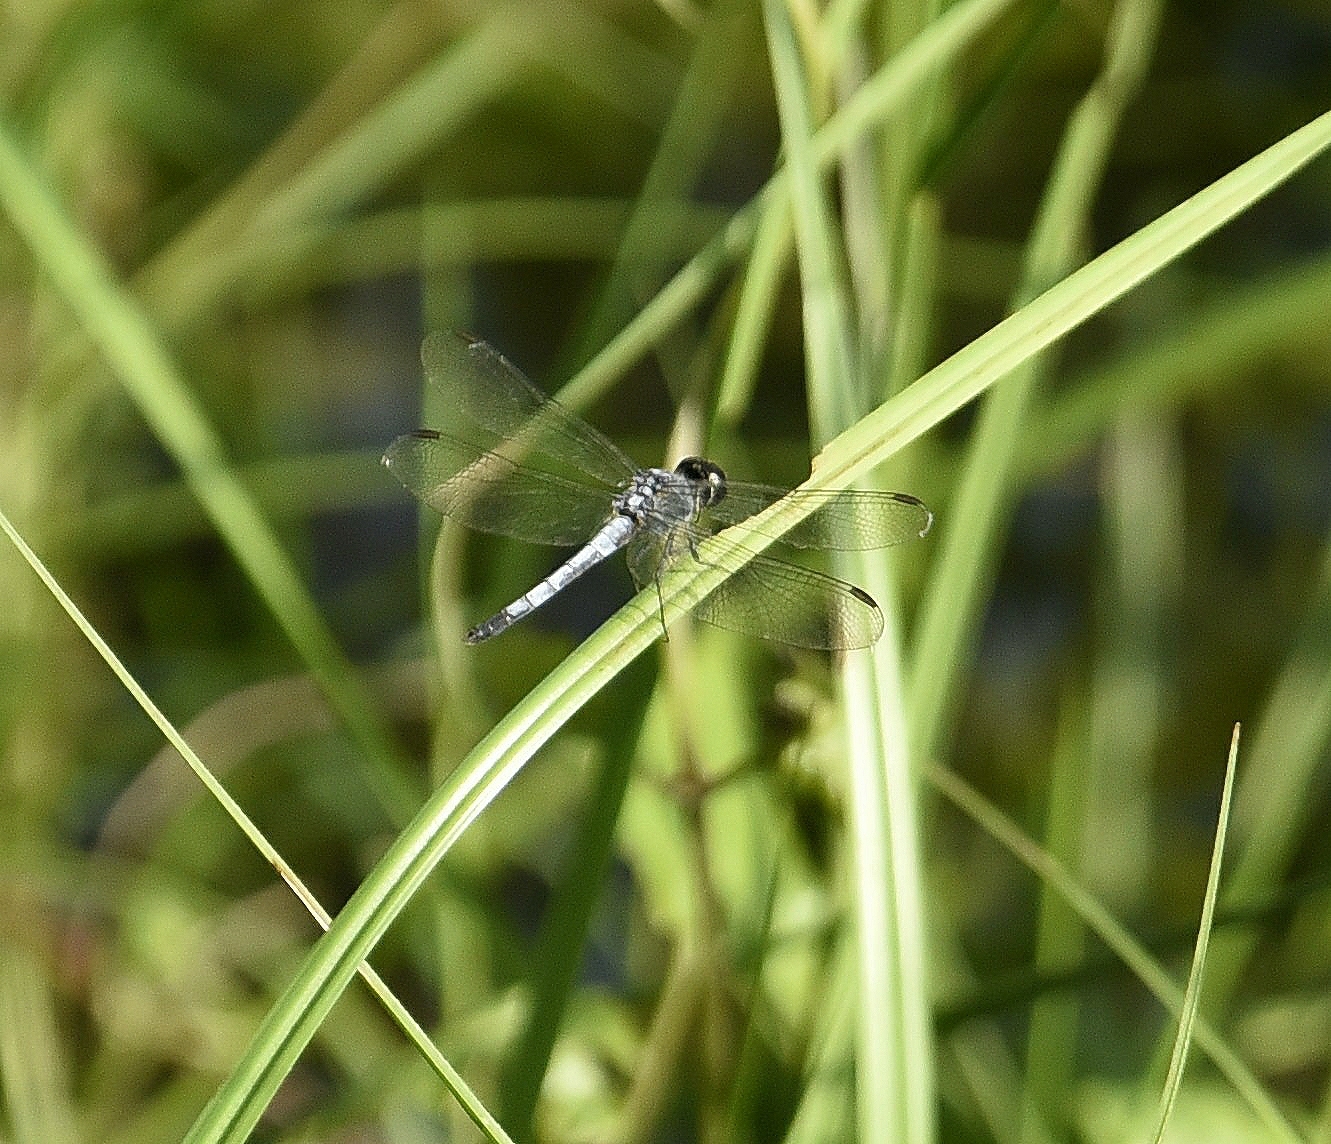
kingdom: Animalia
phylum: Arthropoda
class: Insecta
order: Odonata
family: Libellulidae
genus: Brachydiplax
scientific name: Brachydiplax sobrina
